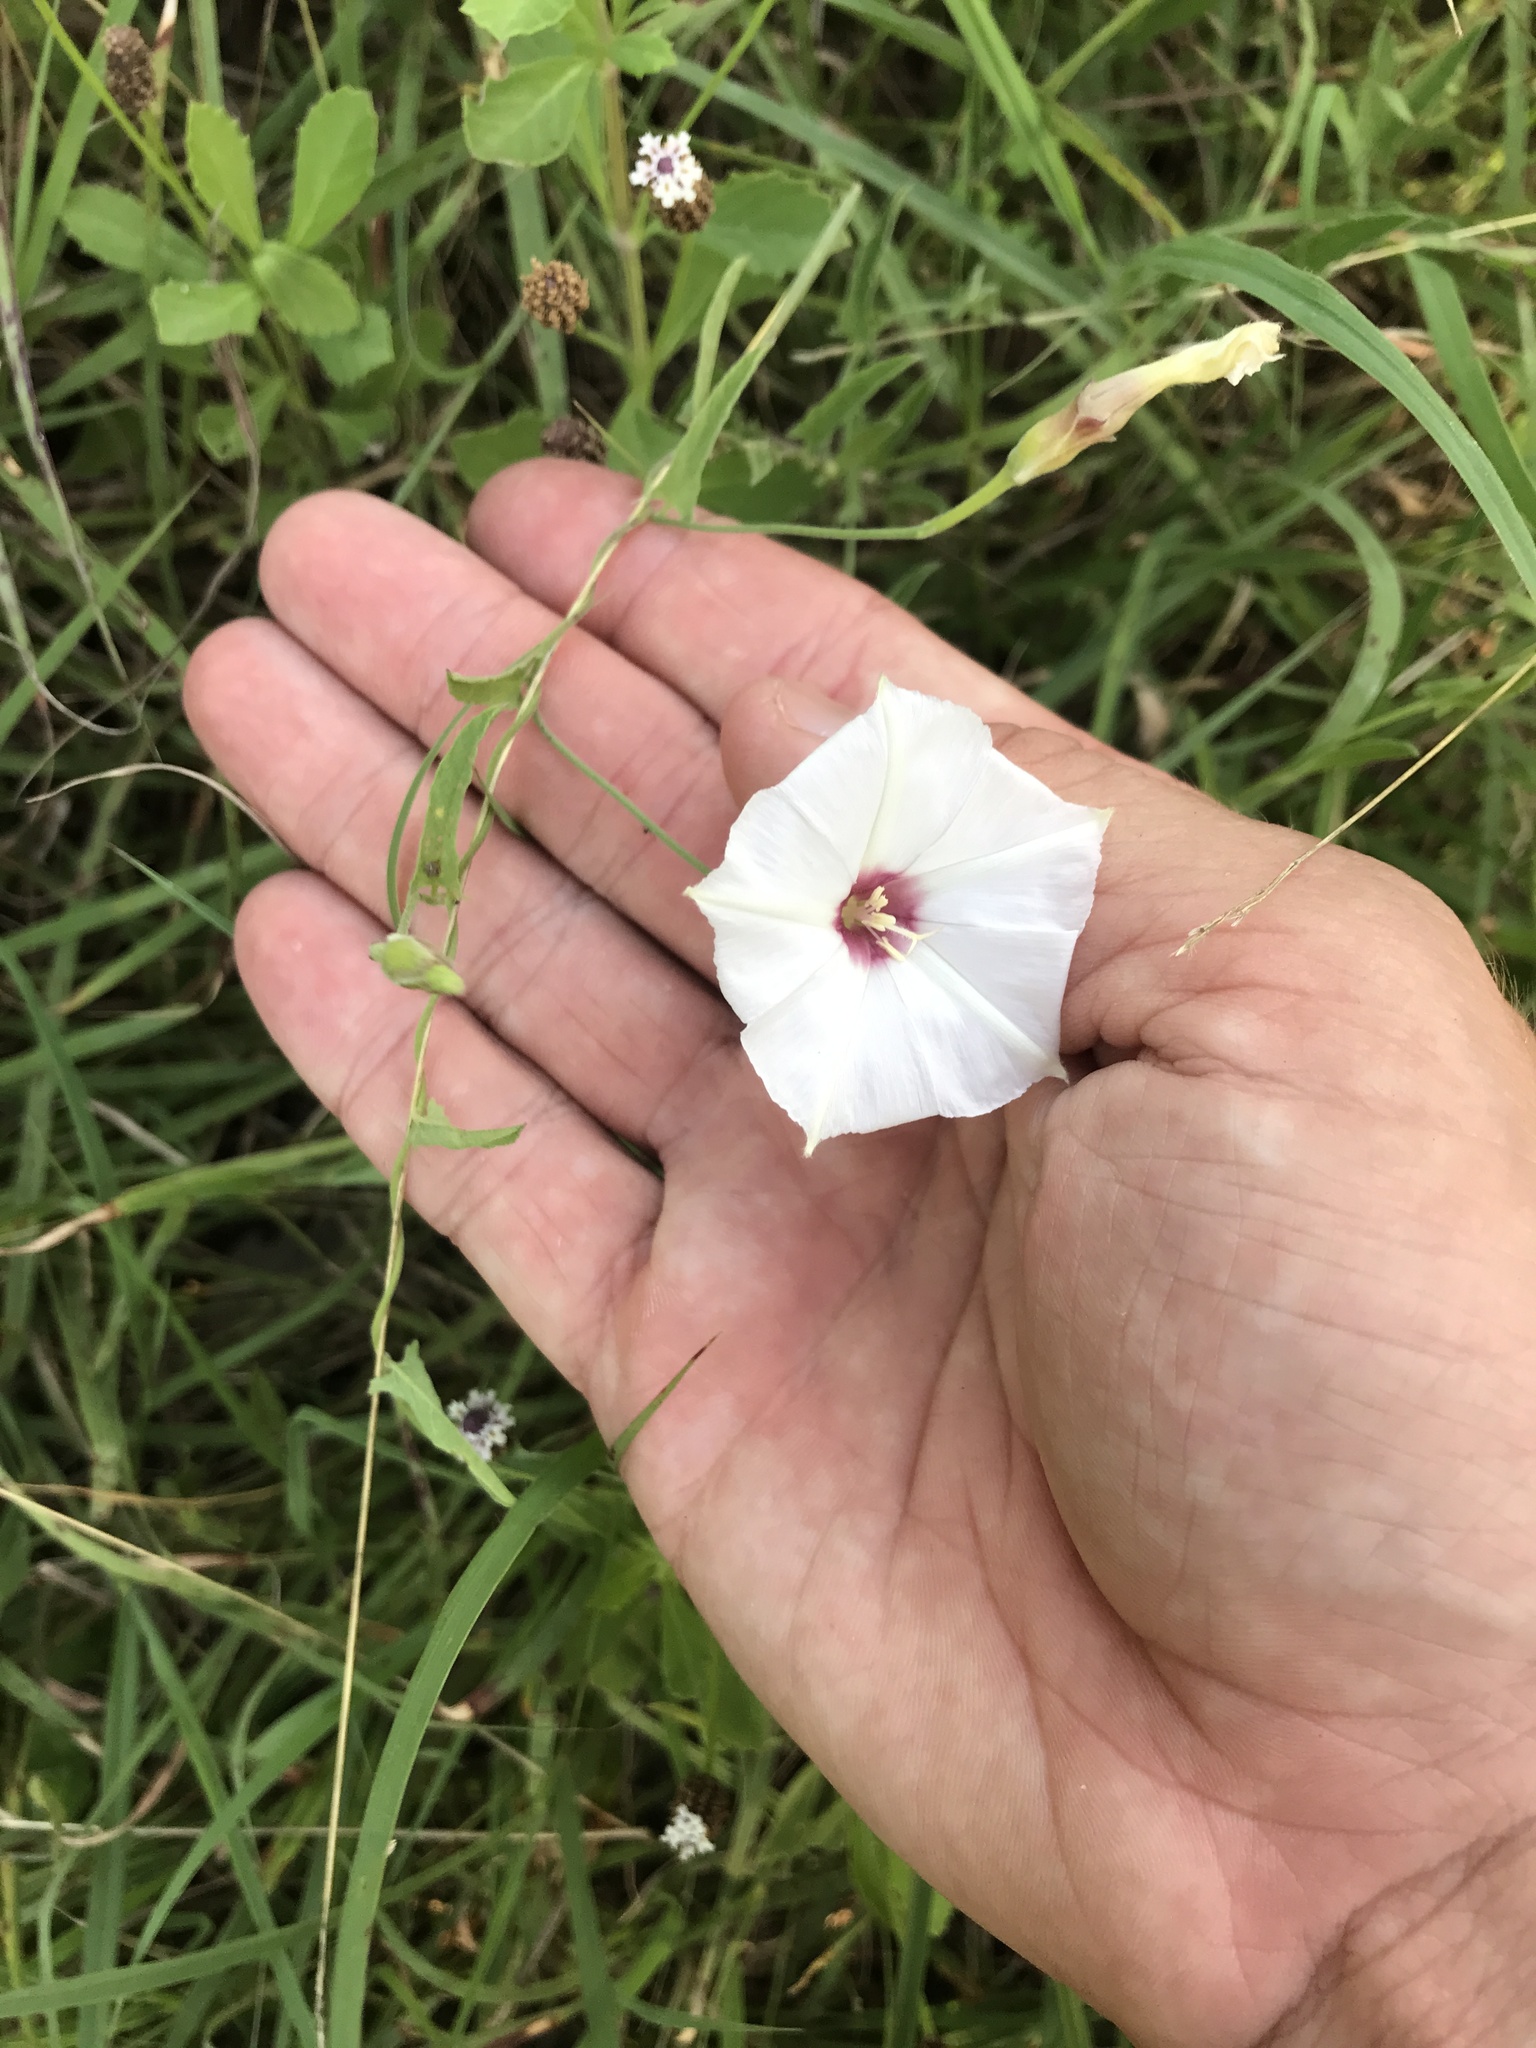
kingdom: Plantae
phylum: Tracheophyta
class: Magnoliopsida
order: Solanales
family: Convolvulaceae
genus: Convolvulus
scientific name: Convolvulus equitans
